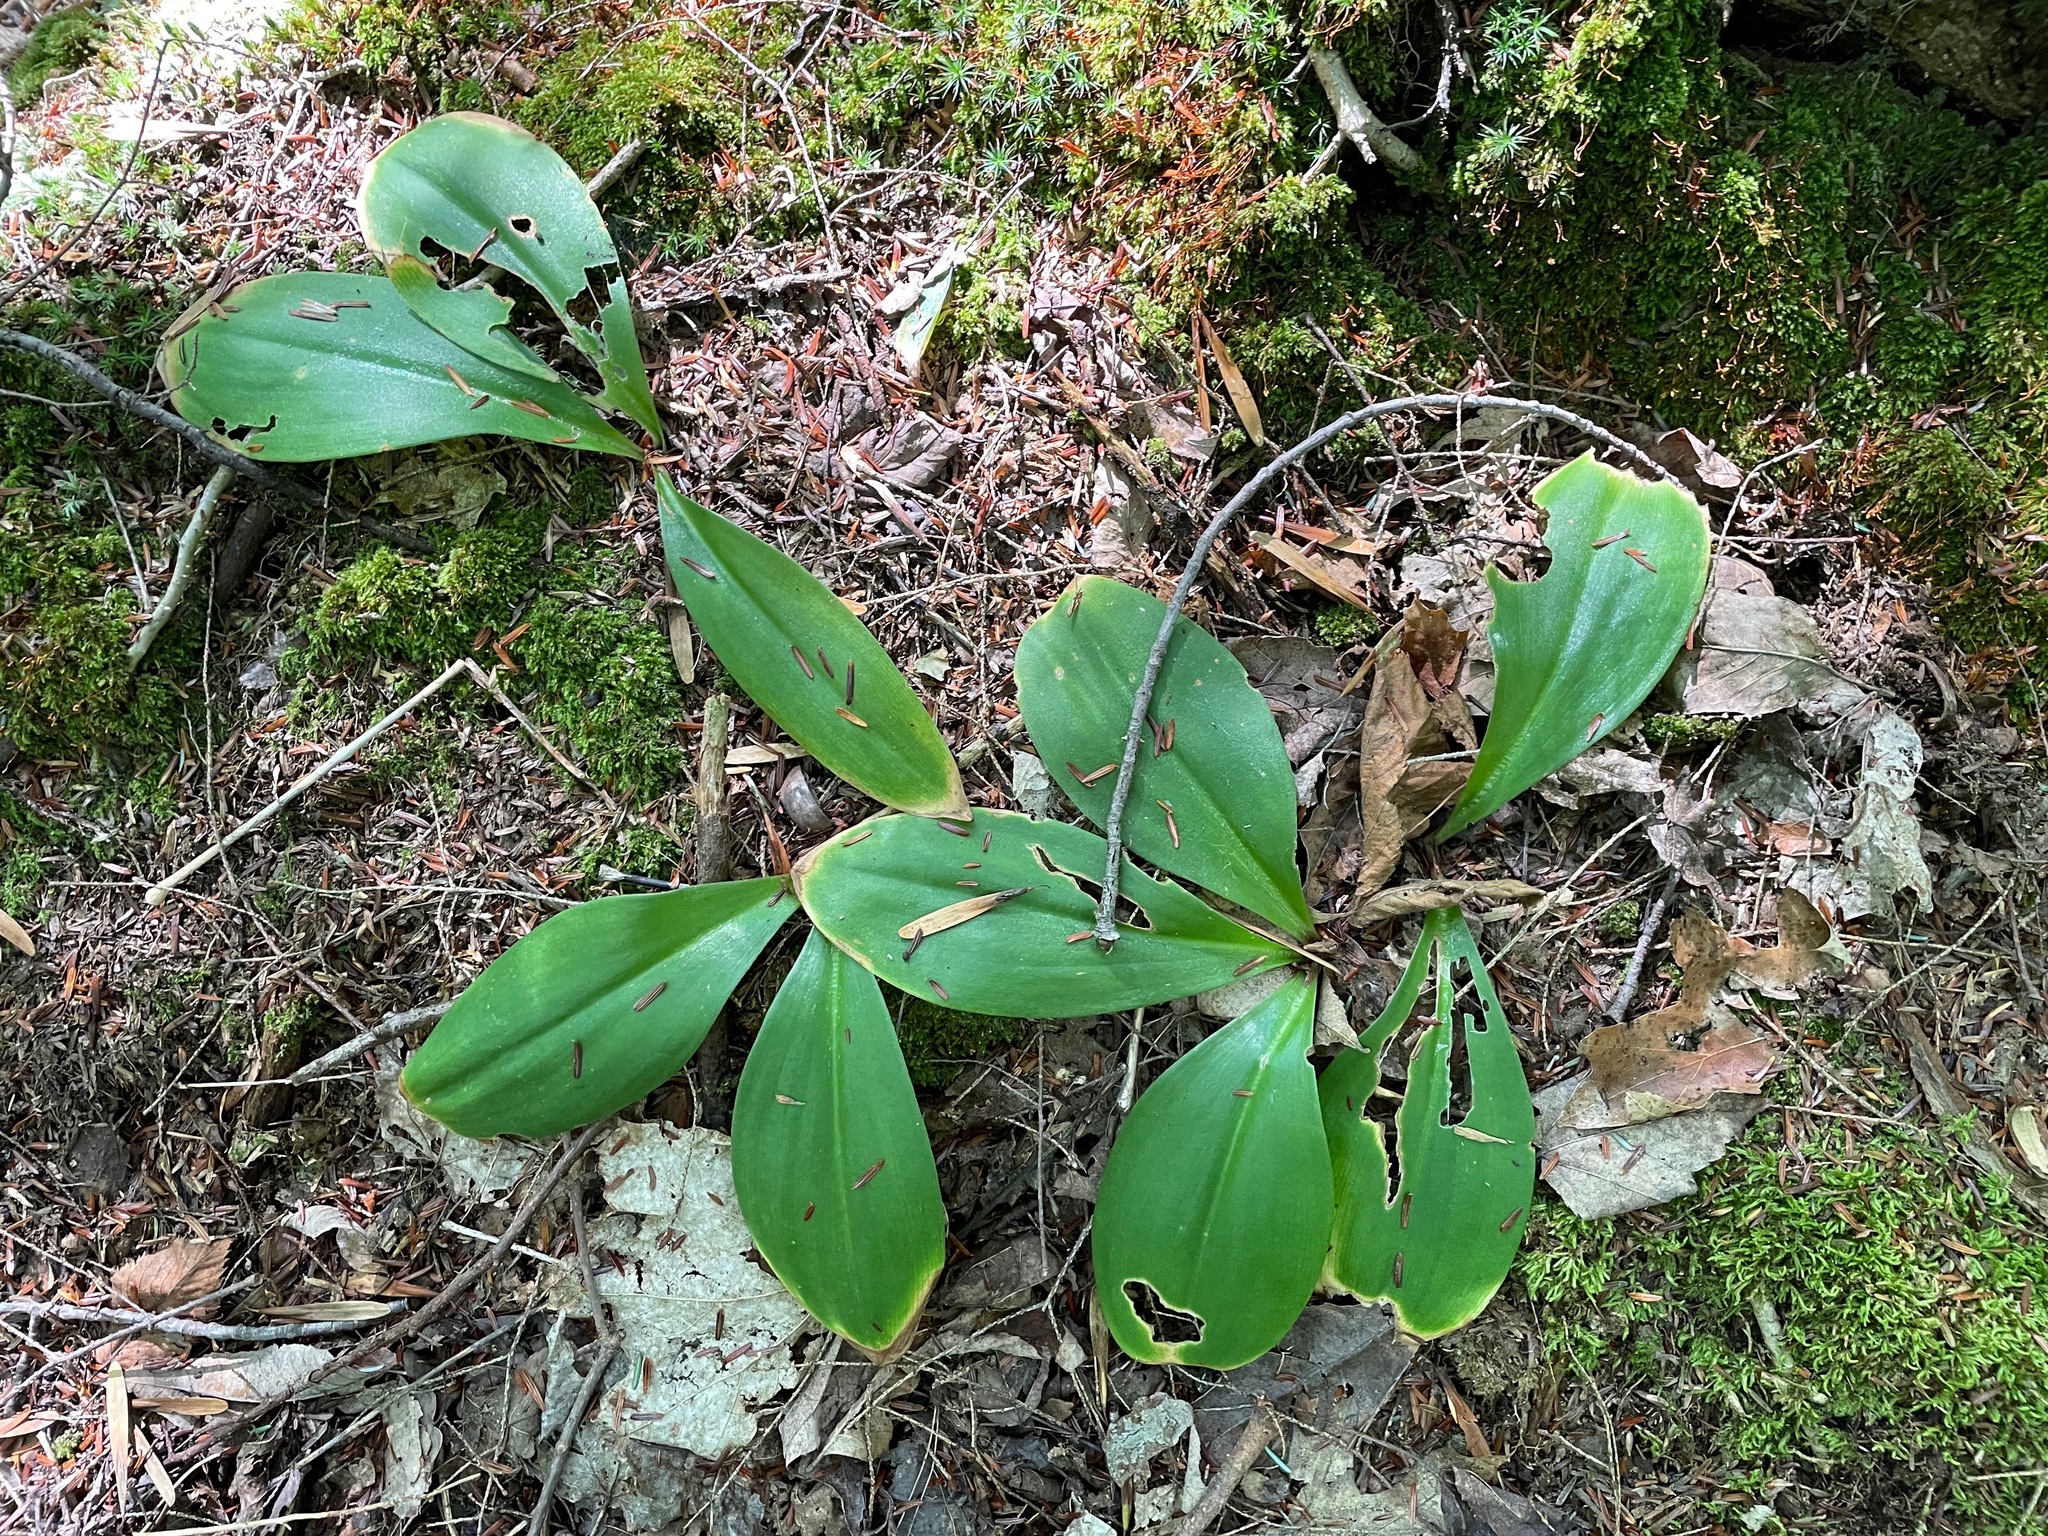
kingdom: Plantae
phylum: Tracheophyta
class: Liliopsida
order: Liliales
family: Liliaceae
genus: Clintonia
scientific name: Clintonia borealis
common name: Yellow clintonia
